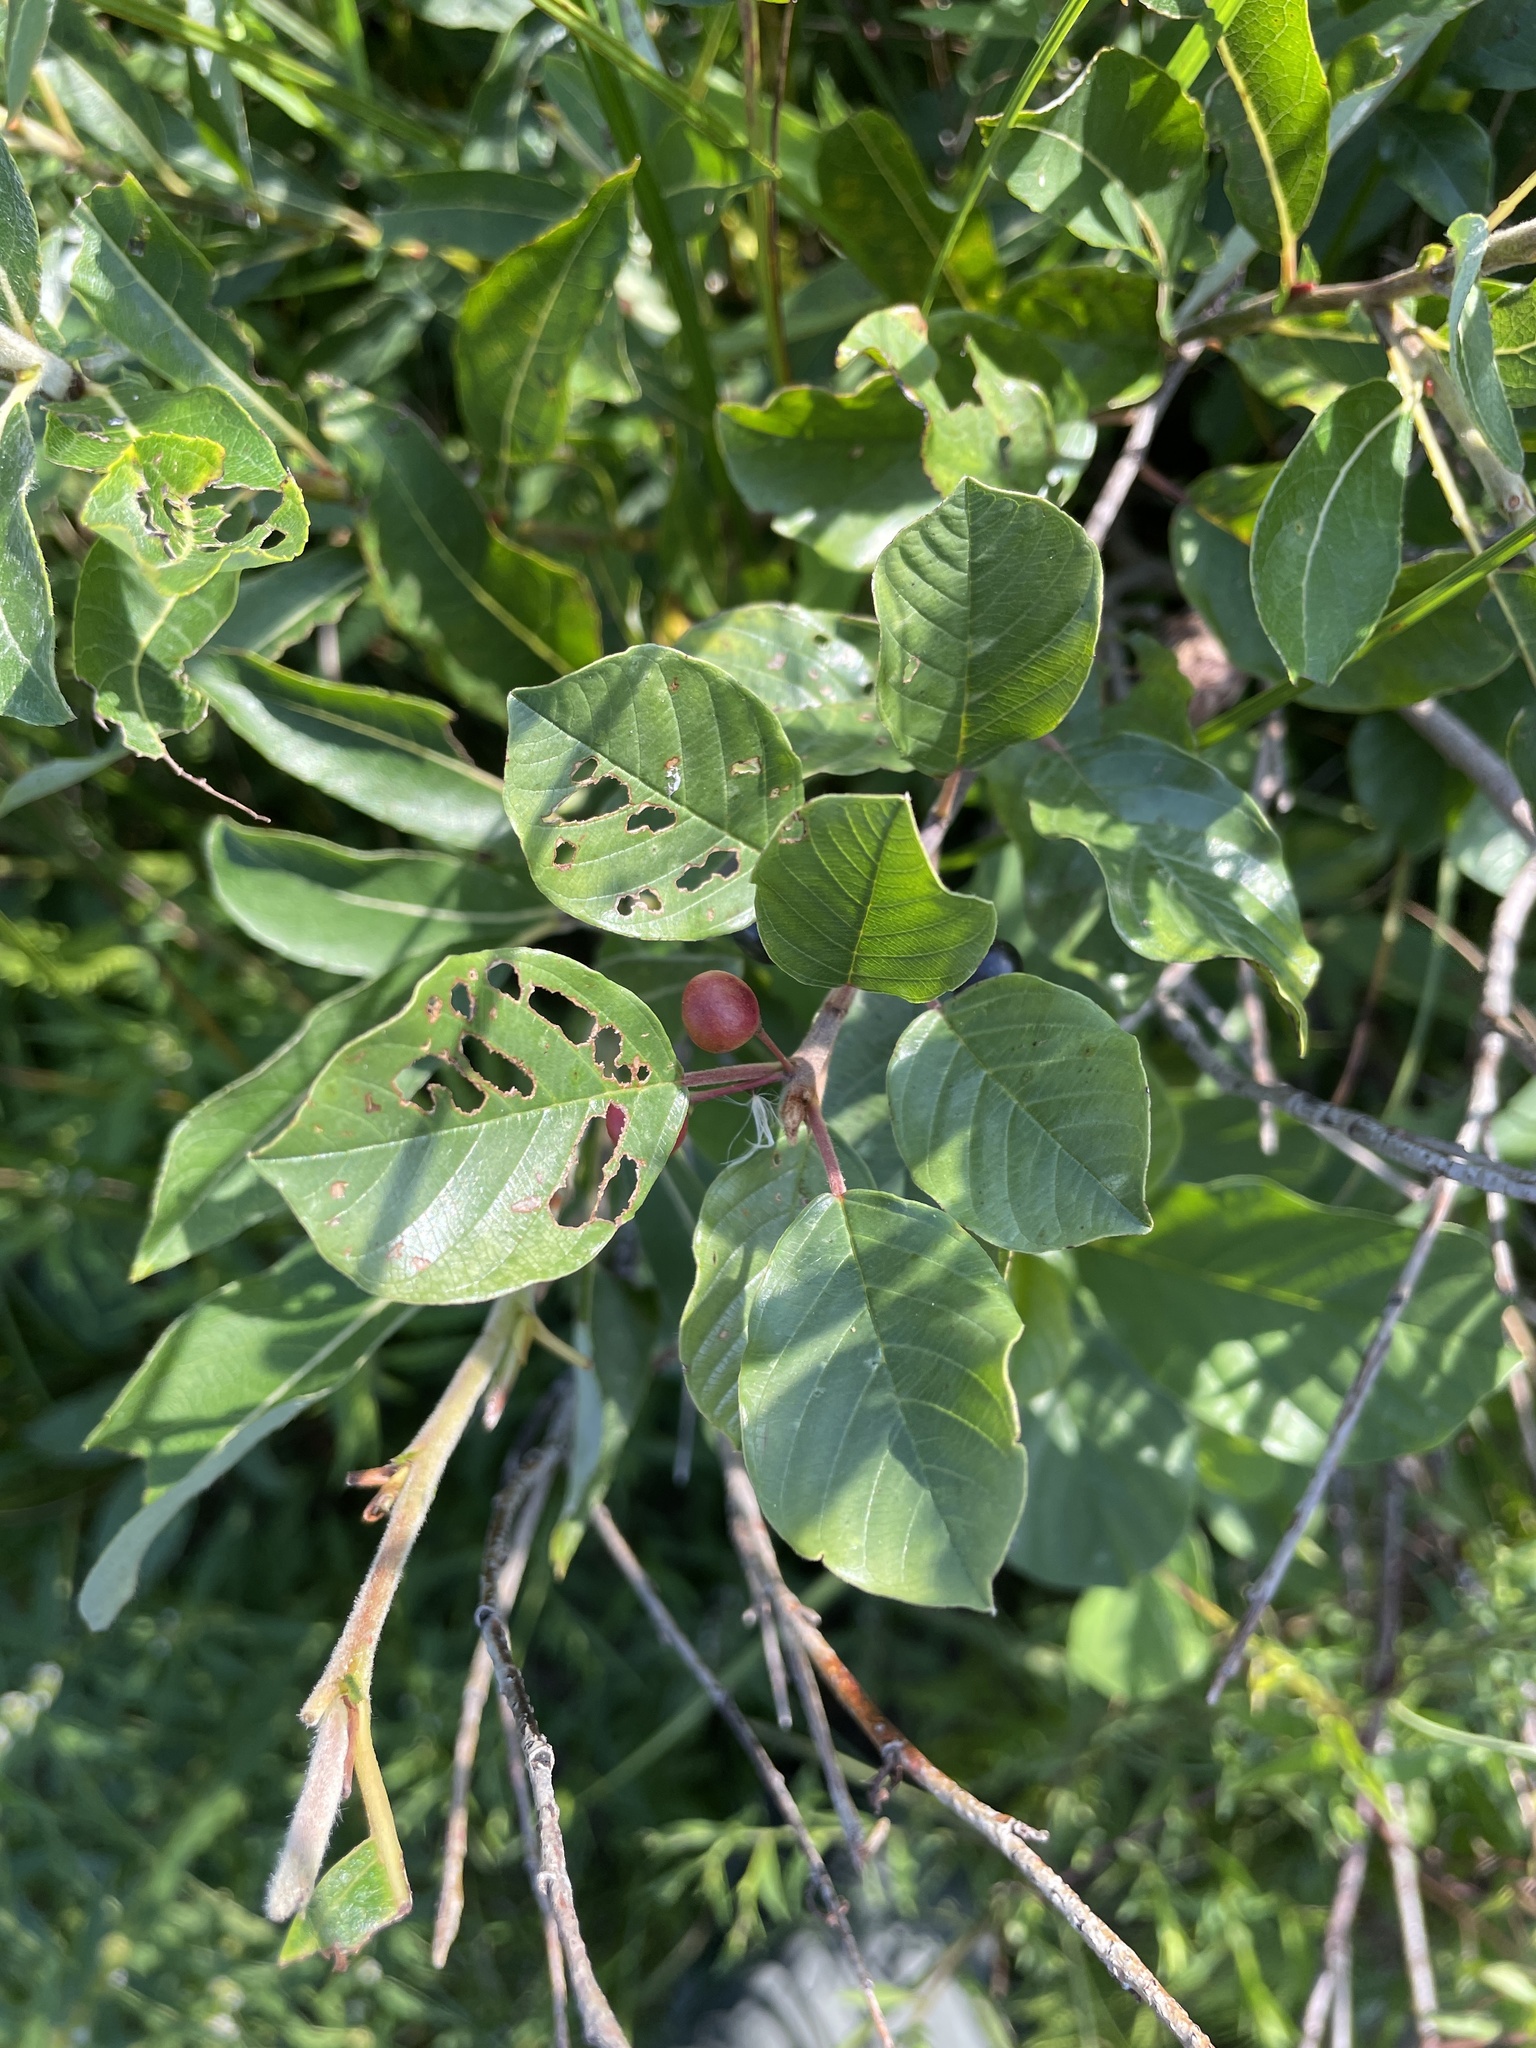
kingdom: Plantae
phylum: Tracheophyta
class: Magnoliopsida
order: Rosales
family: Rhamnaceae
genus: Frangula
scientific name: Frangula alnus
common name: Alder buckthorn
